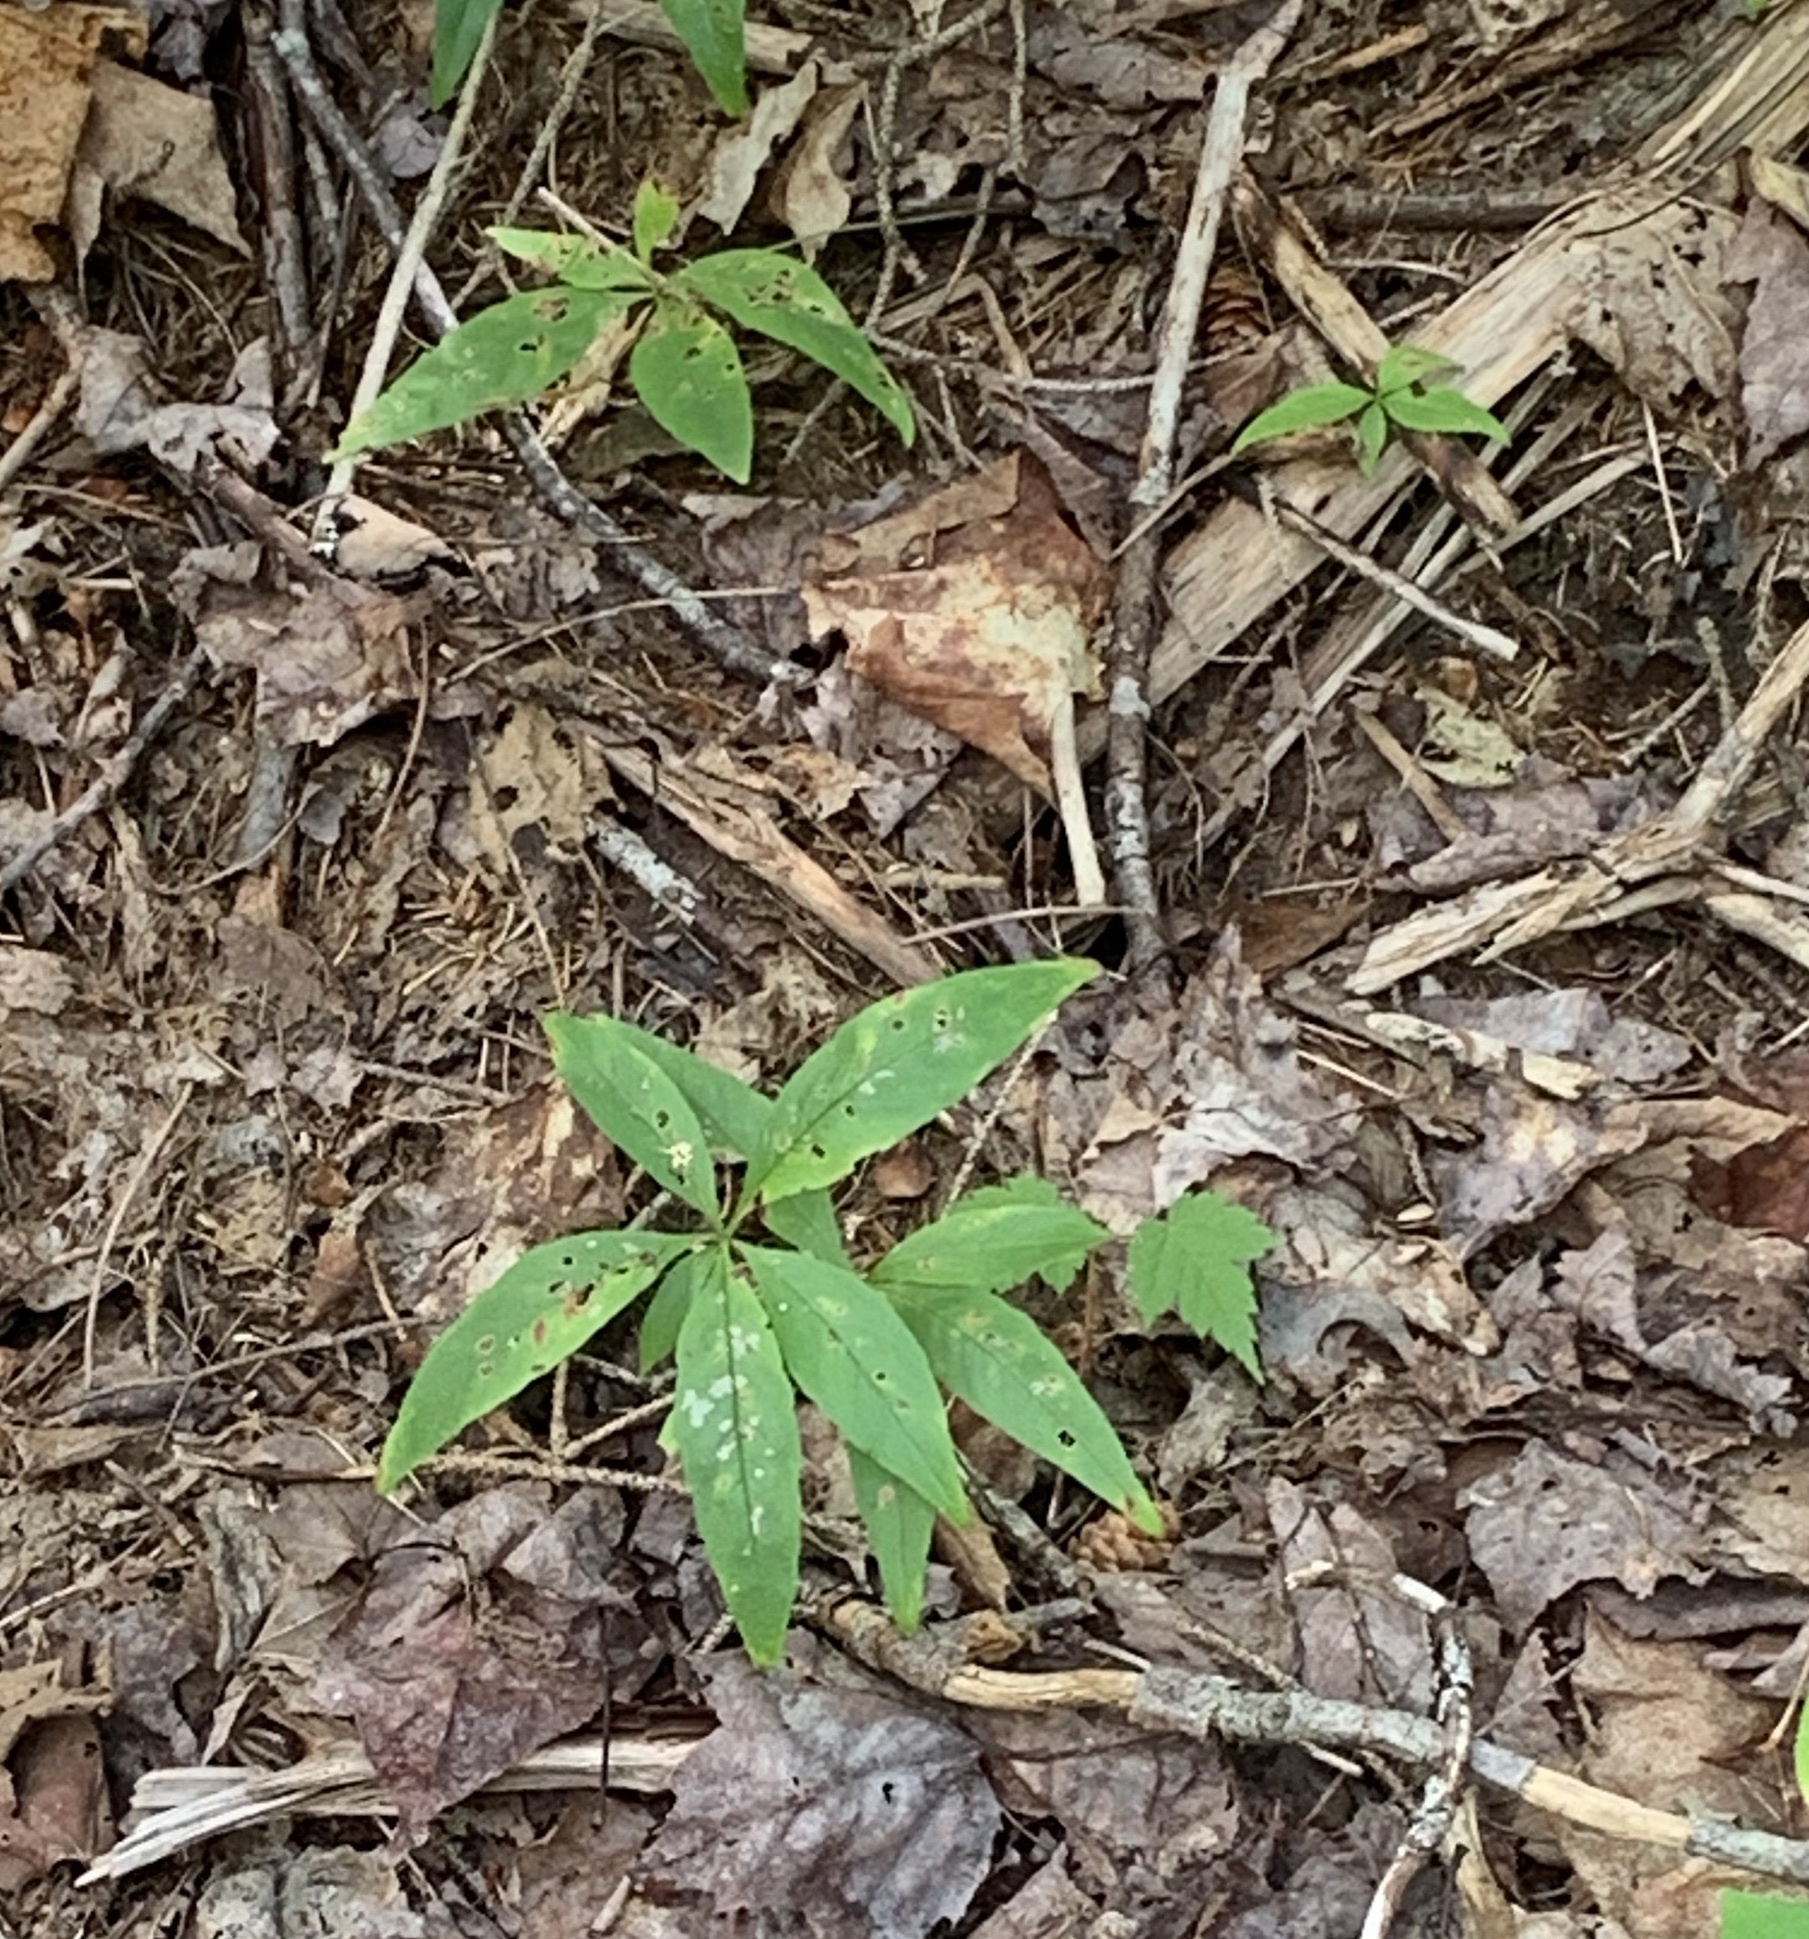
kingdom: Plantae
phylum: Tracheophyta
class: Magnoliopsida
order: Ericales
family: Primulaceae
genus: Lysimachia
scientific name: Lysimachia borealis
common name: American starflower
